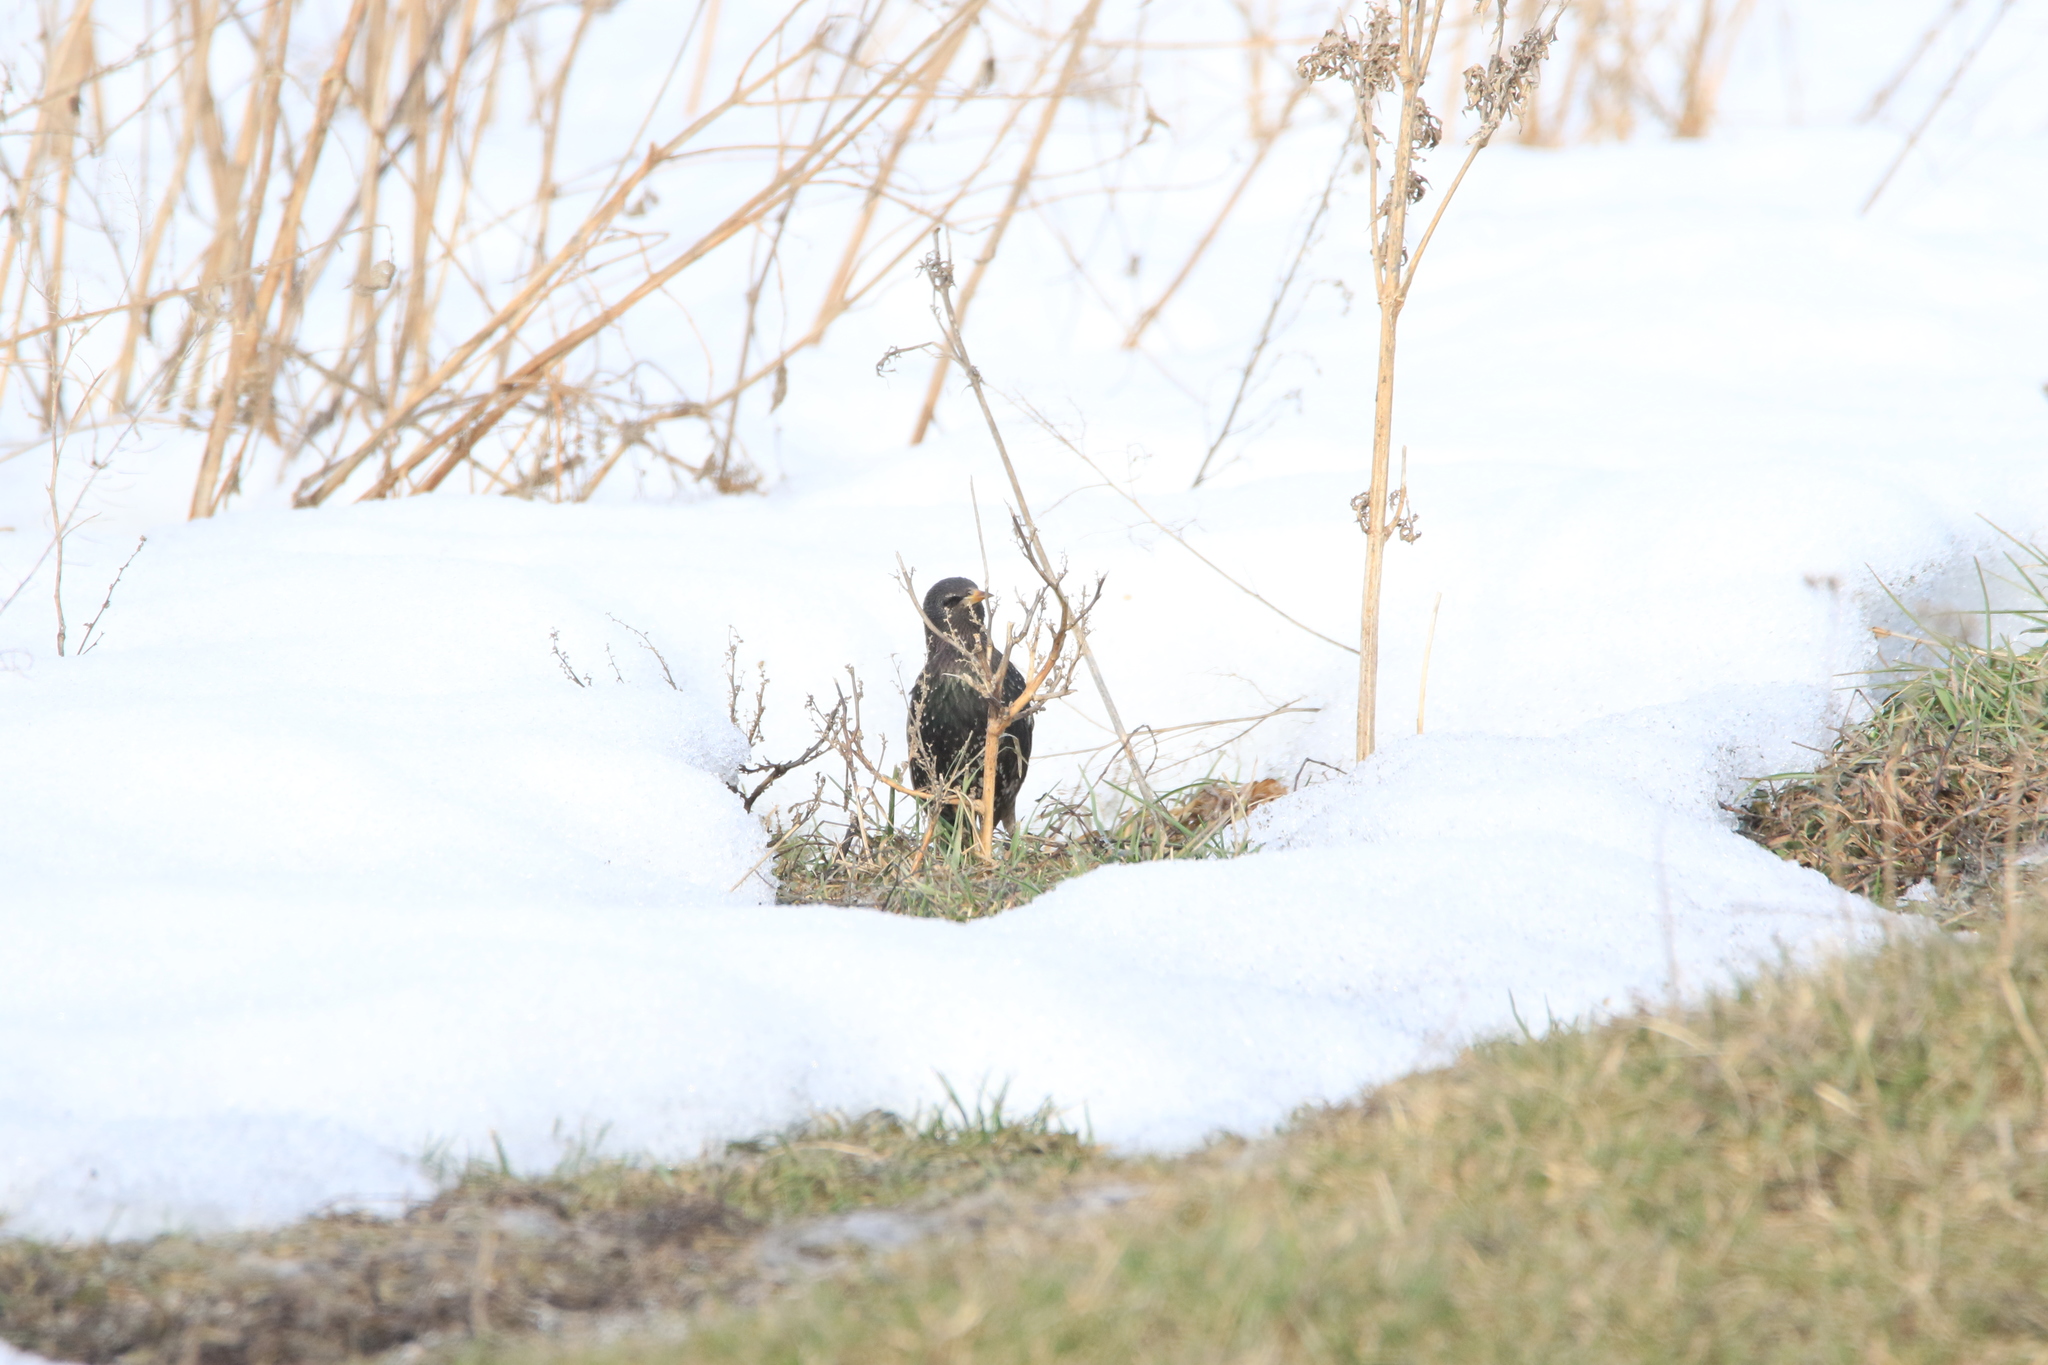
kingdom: Animalia
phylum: Chordata
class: Aves
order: Passeriformes
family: Sturnidae
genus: Sturnus
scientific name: Sturnus vulgaris
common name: Common starling
